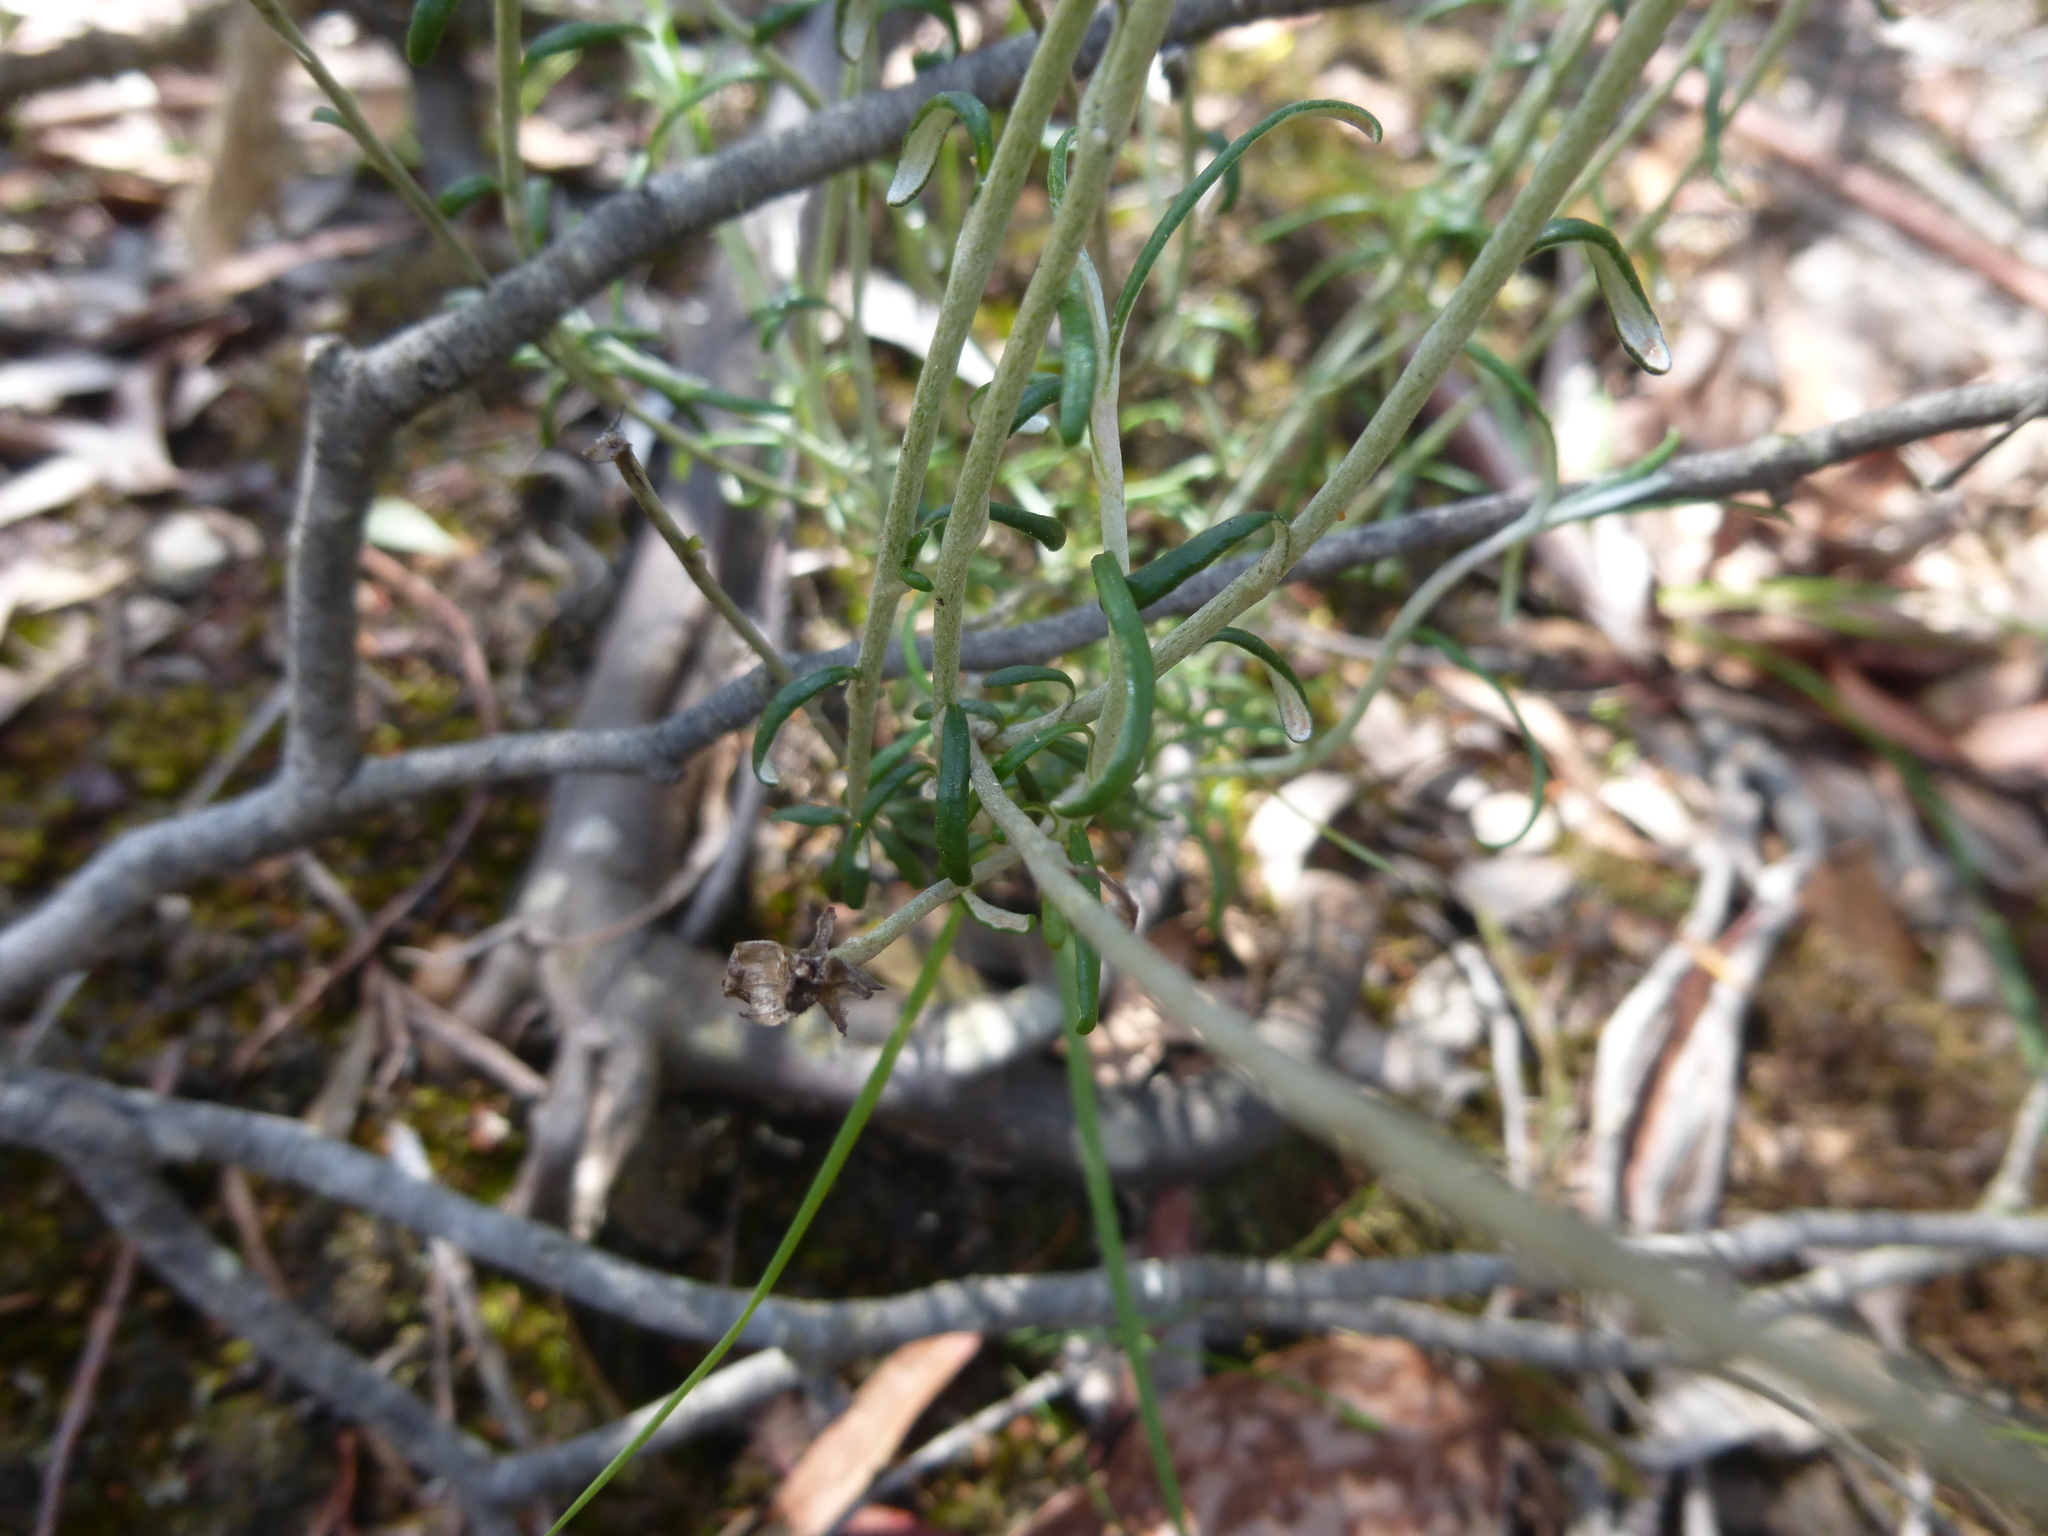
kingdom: Plantae
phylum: Tracheophyta
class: Magnoliopsida
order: Asterales
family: Asteraceae
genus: Argentipallium
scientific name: Argentipallium obtusifolium
